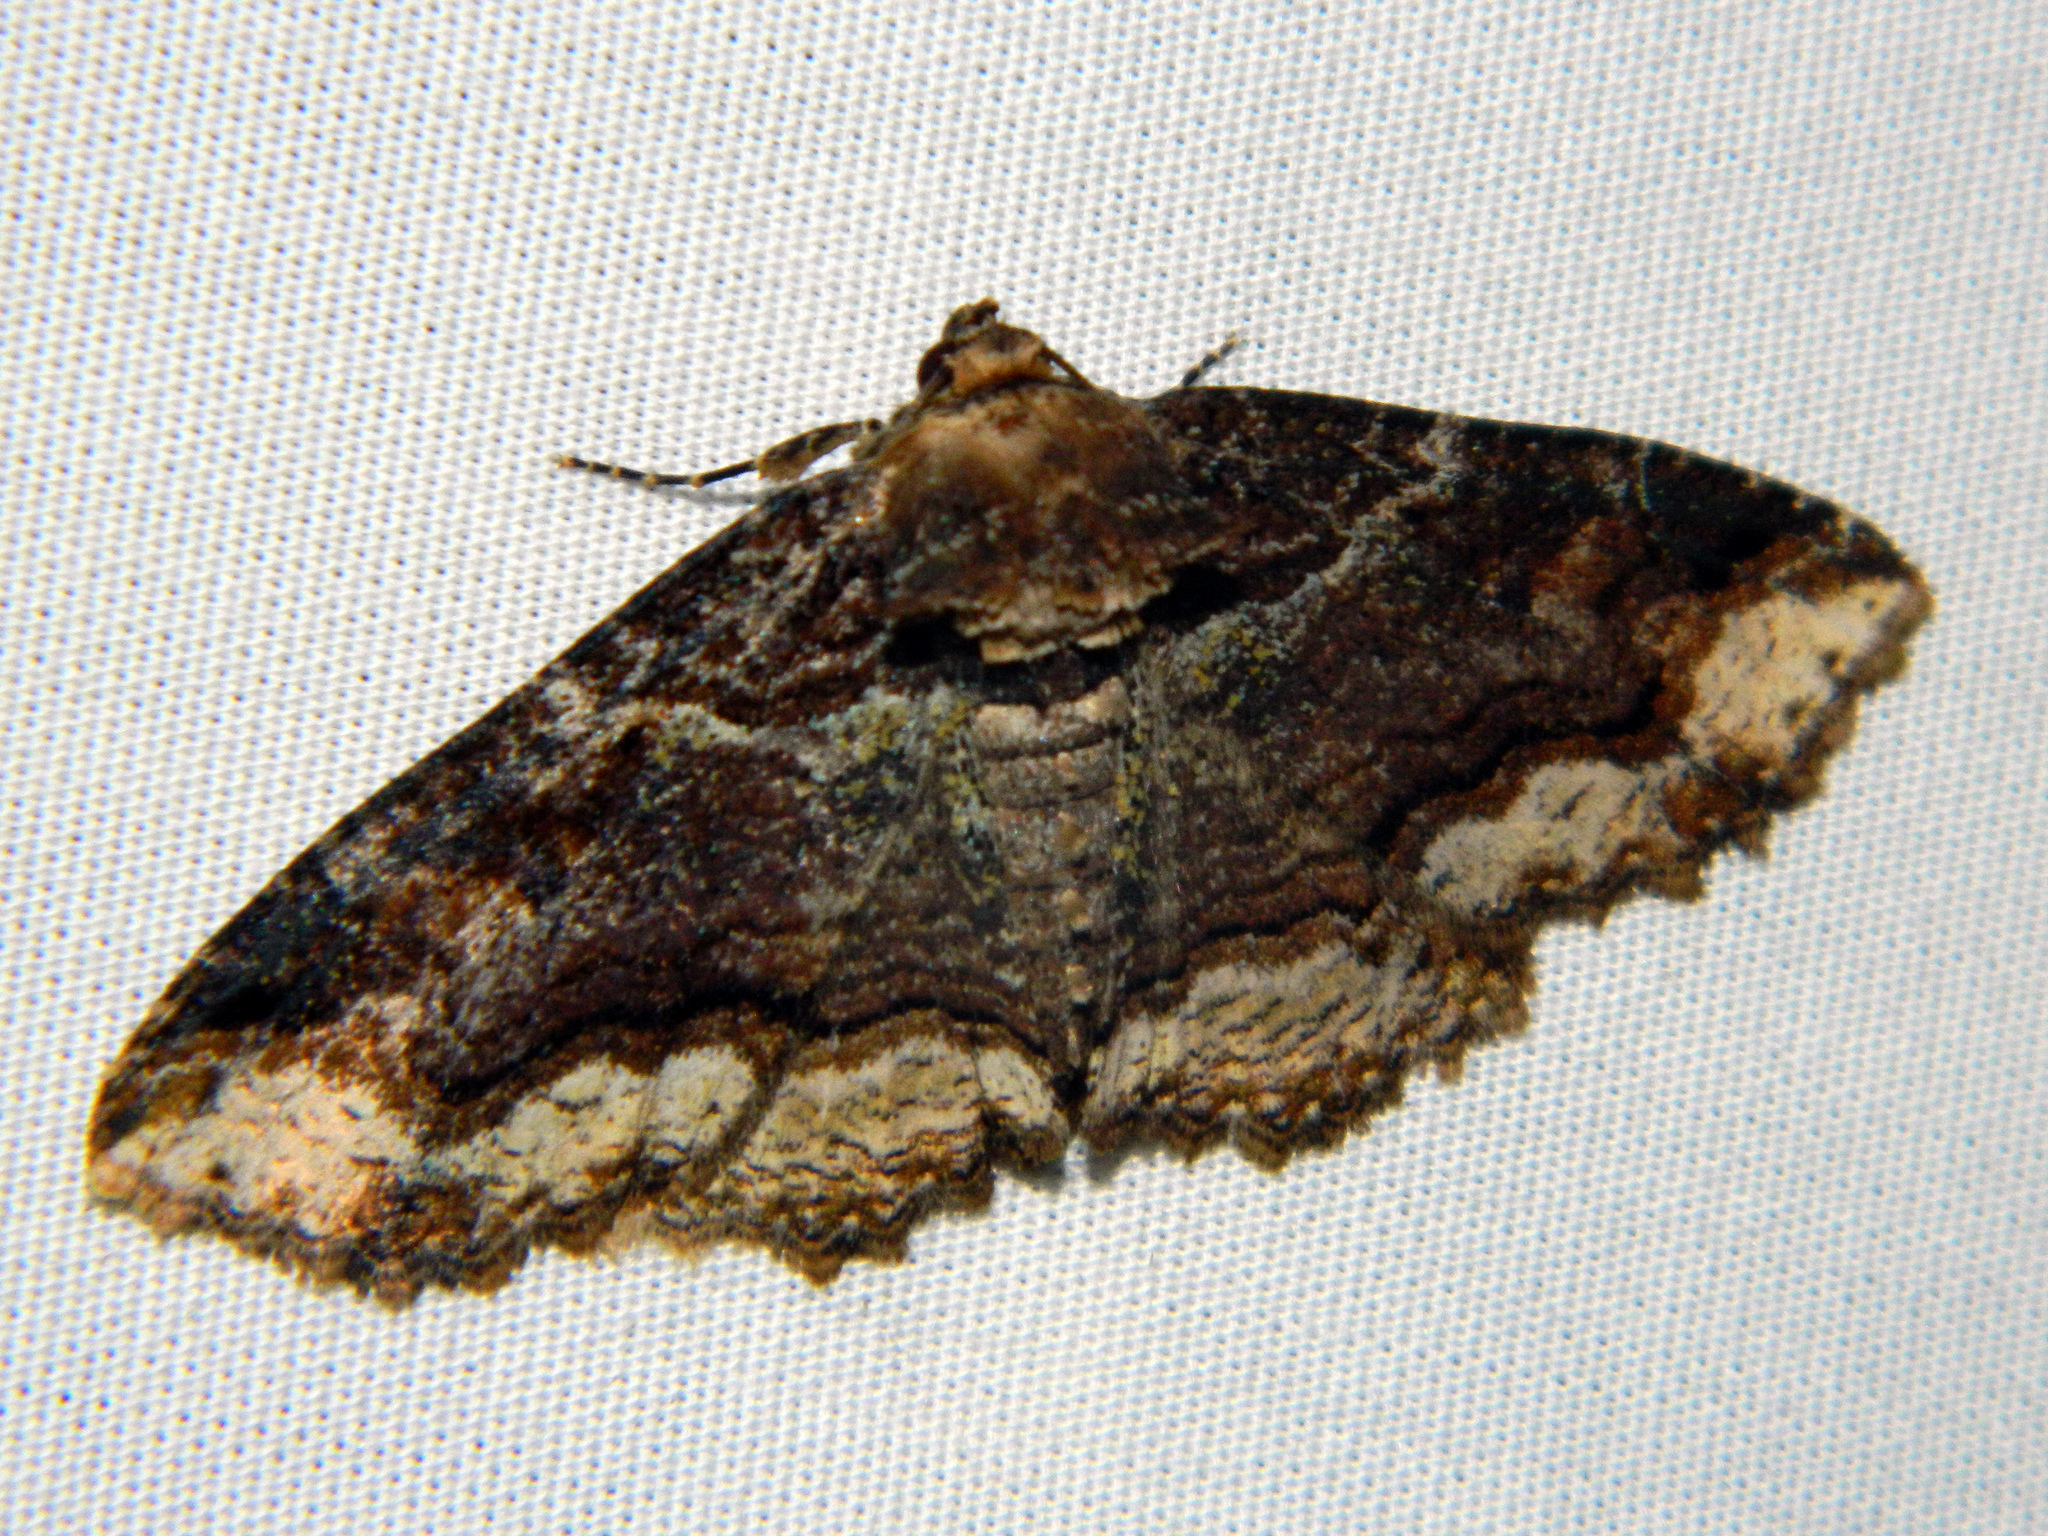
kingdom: Animalia
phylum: Arthropoda
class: Insecta
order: Lepidoptera
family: Erebidae
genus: Zale
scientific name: Zale minerea
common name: Colorful zale moth
